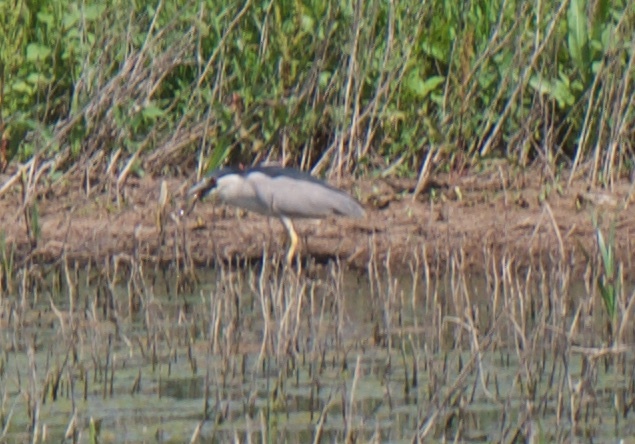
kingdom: Animalia
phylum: Chordata
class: Aves
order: Pelecaniformes
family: Ardeidae
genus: Nycticorax
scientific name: Nycticorax nycticorax
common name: Black-crowned night heron
